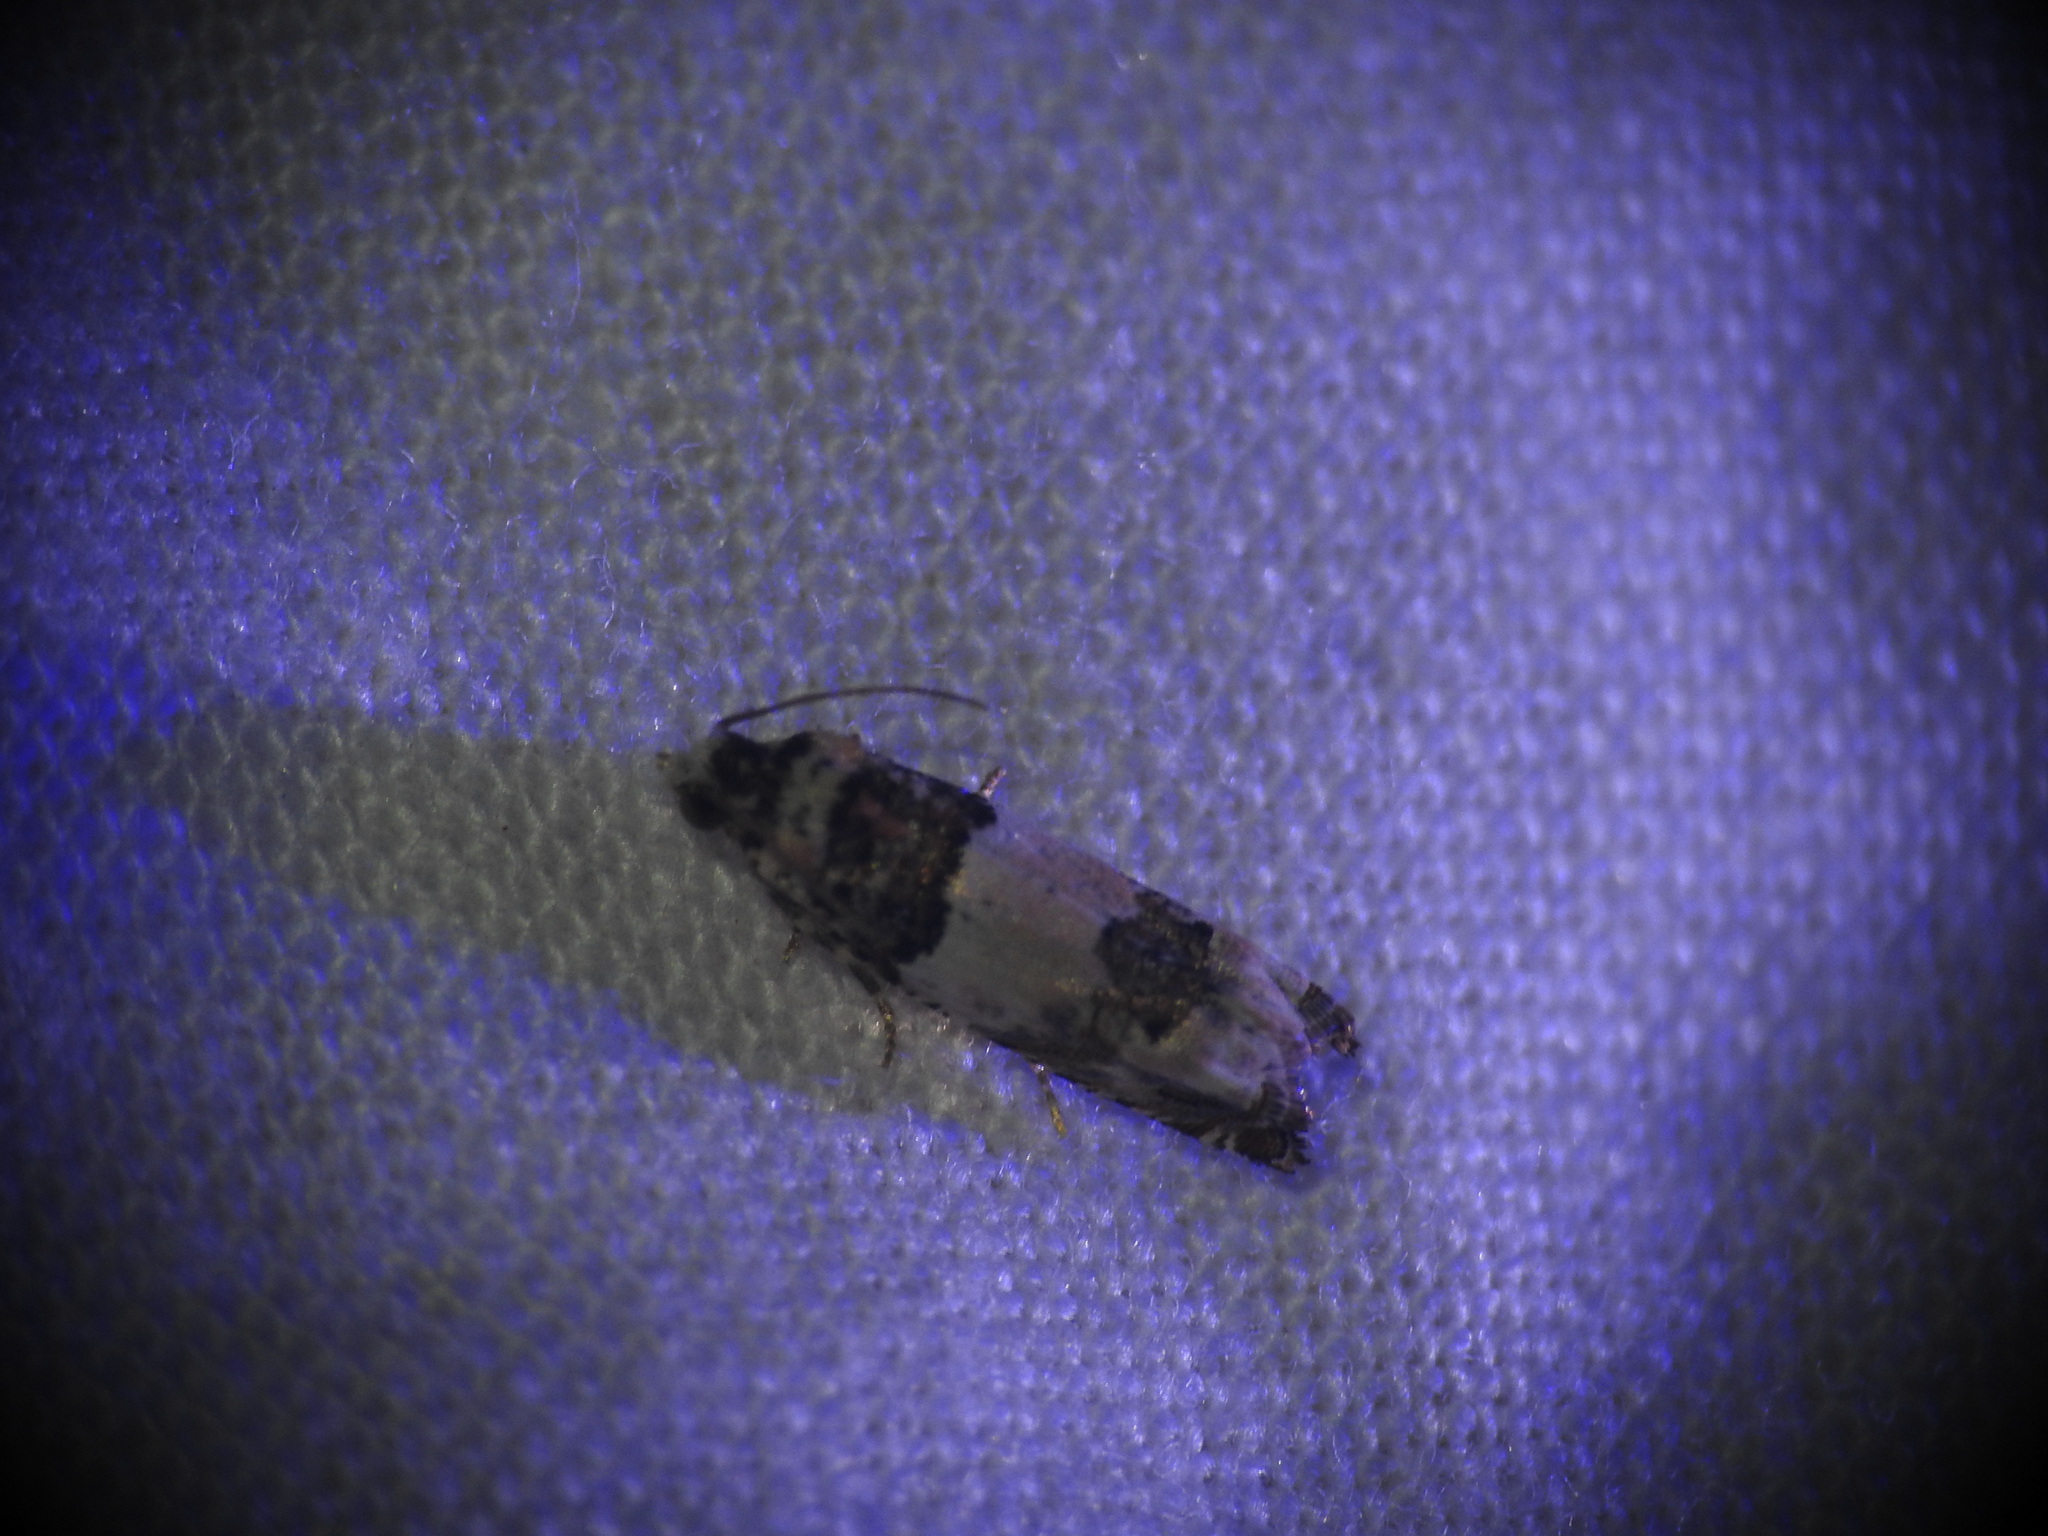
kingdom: Animalia
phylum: Arthropoda
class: Insecta
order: Lepidoptera
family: Tortricidae
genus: Epinotia
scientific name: Epinotia thapsiana
